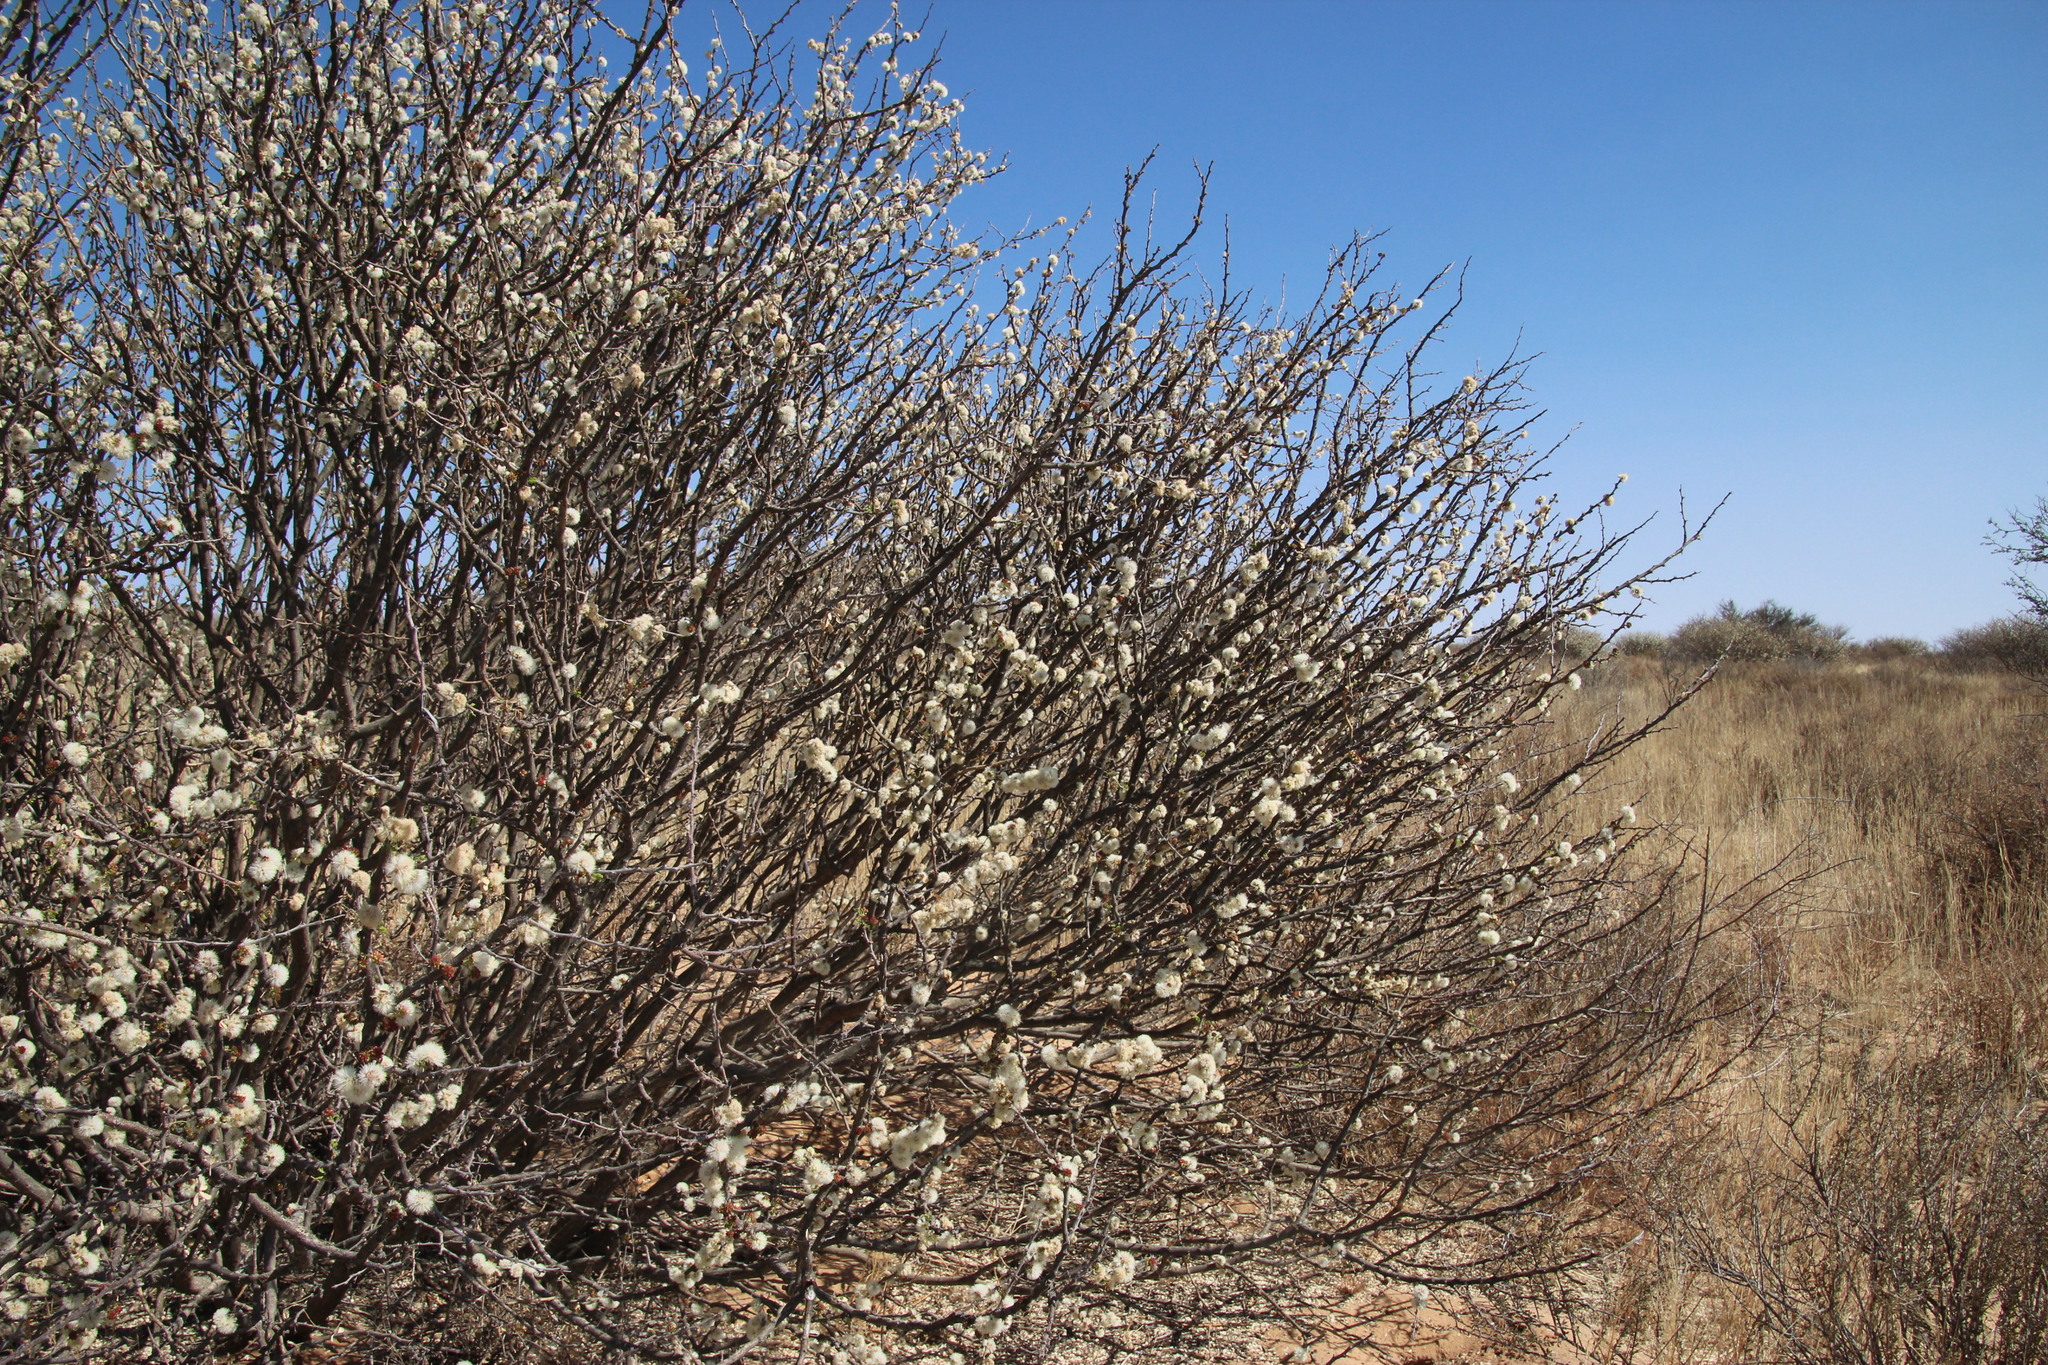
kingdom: Plantae
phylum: Tracheophyta
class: Magnoliopsida
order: Fabales
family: Fabaceae
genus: Senegalia
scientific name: Senegalia mellifera
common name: Hookthorn
